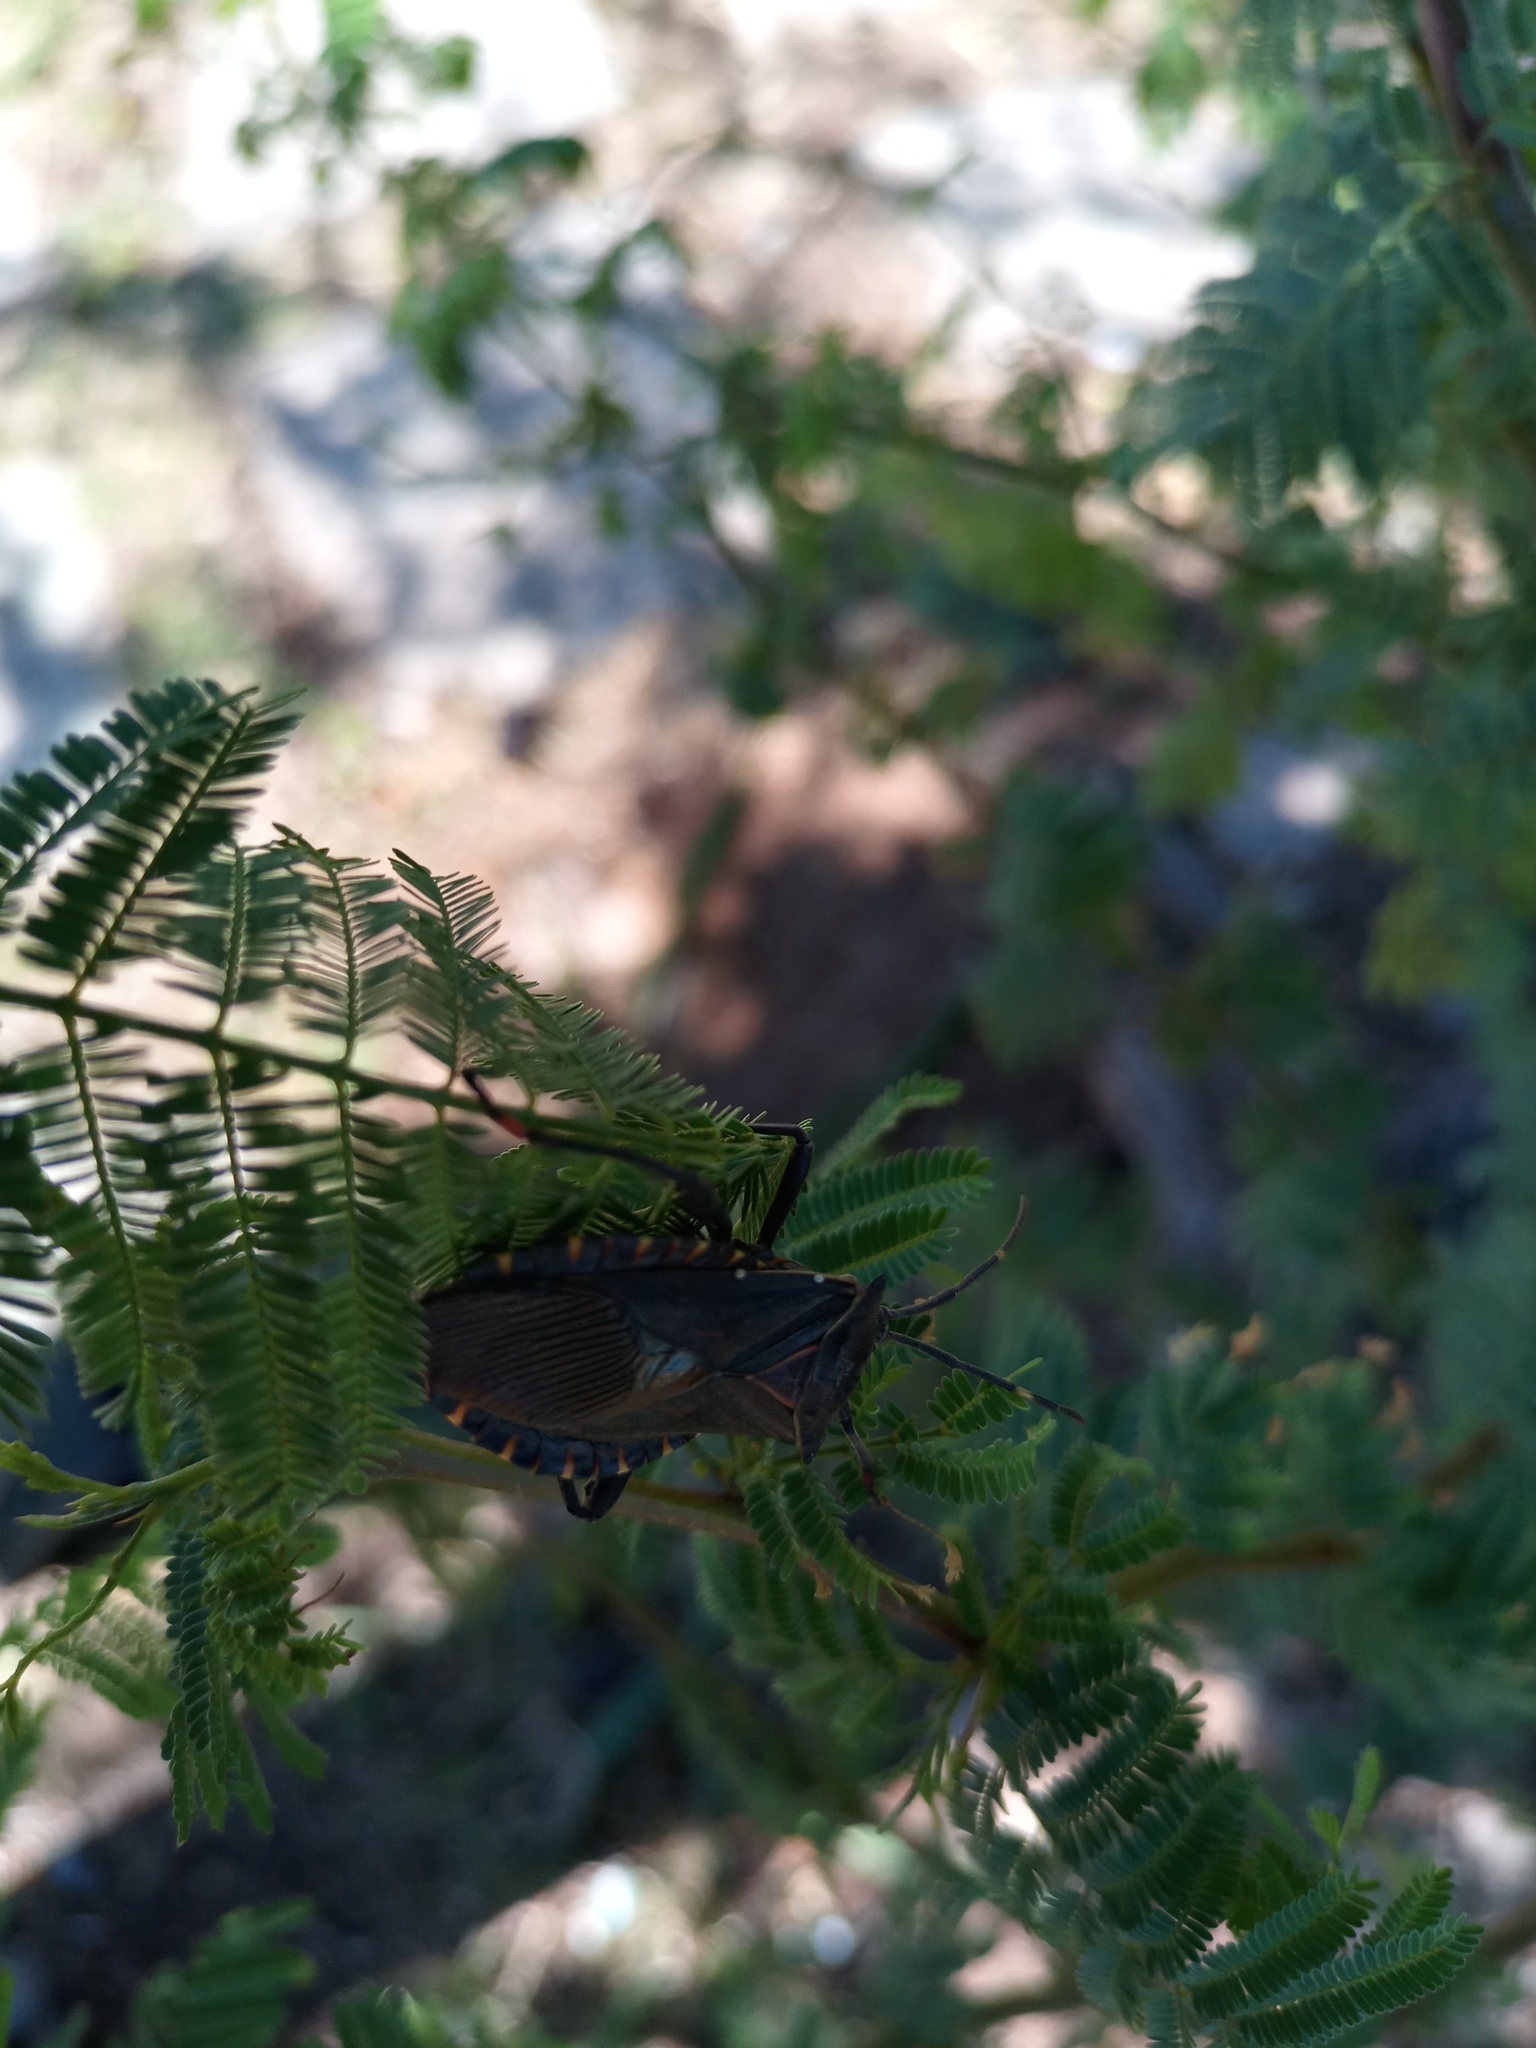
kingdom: Animalia
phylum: Arthropoda
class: Insecta
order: Hemiptera
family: Coreidae
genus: Pachylis
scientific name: Pachylis argentinus
